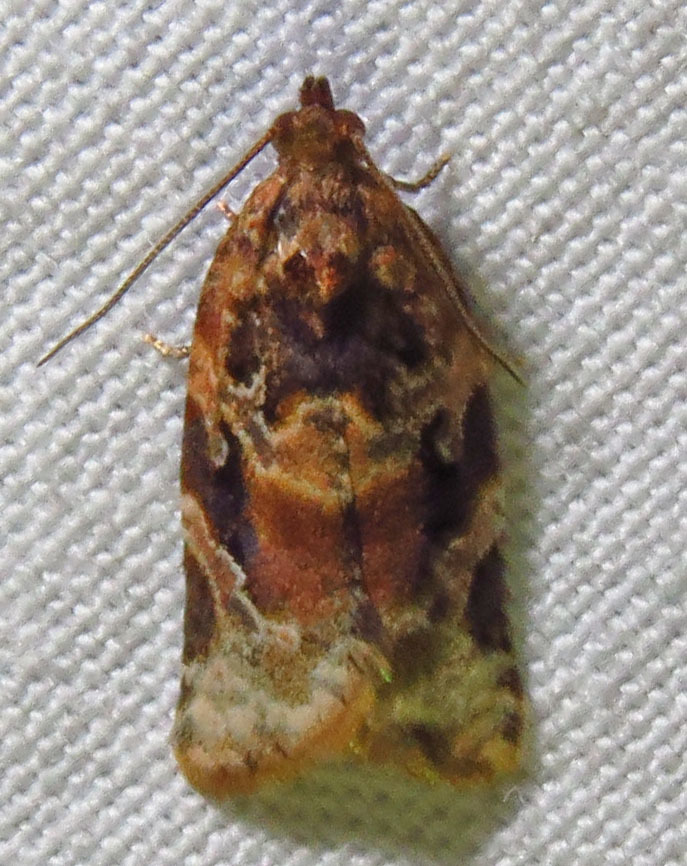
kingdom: Animalia
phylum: Arthropoda
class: Insecta
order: Lepidoptera
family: Tortricidae
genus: Argyrotaenia
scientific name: Argyrotaenia velutinana
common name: Red-banded leafroller moth
